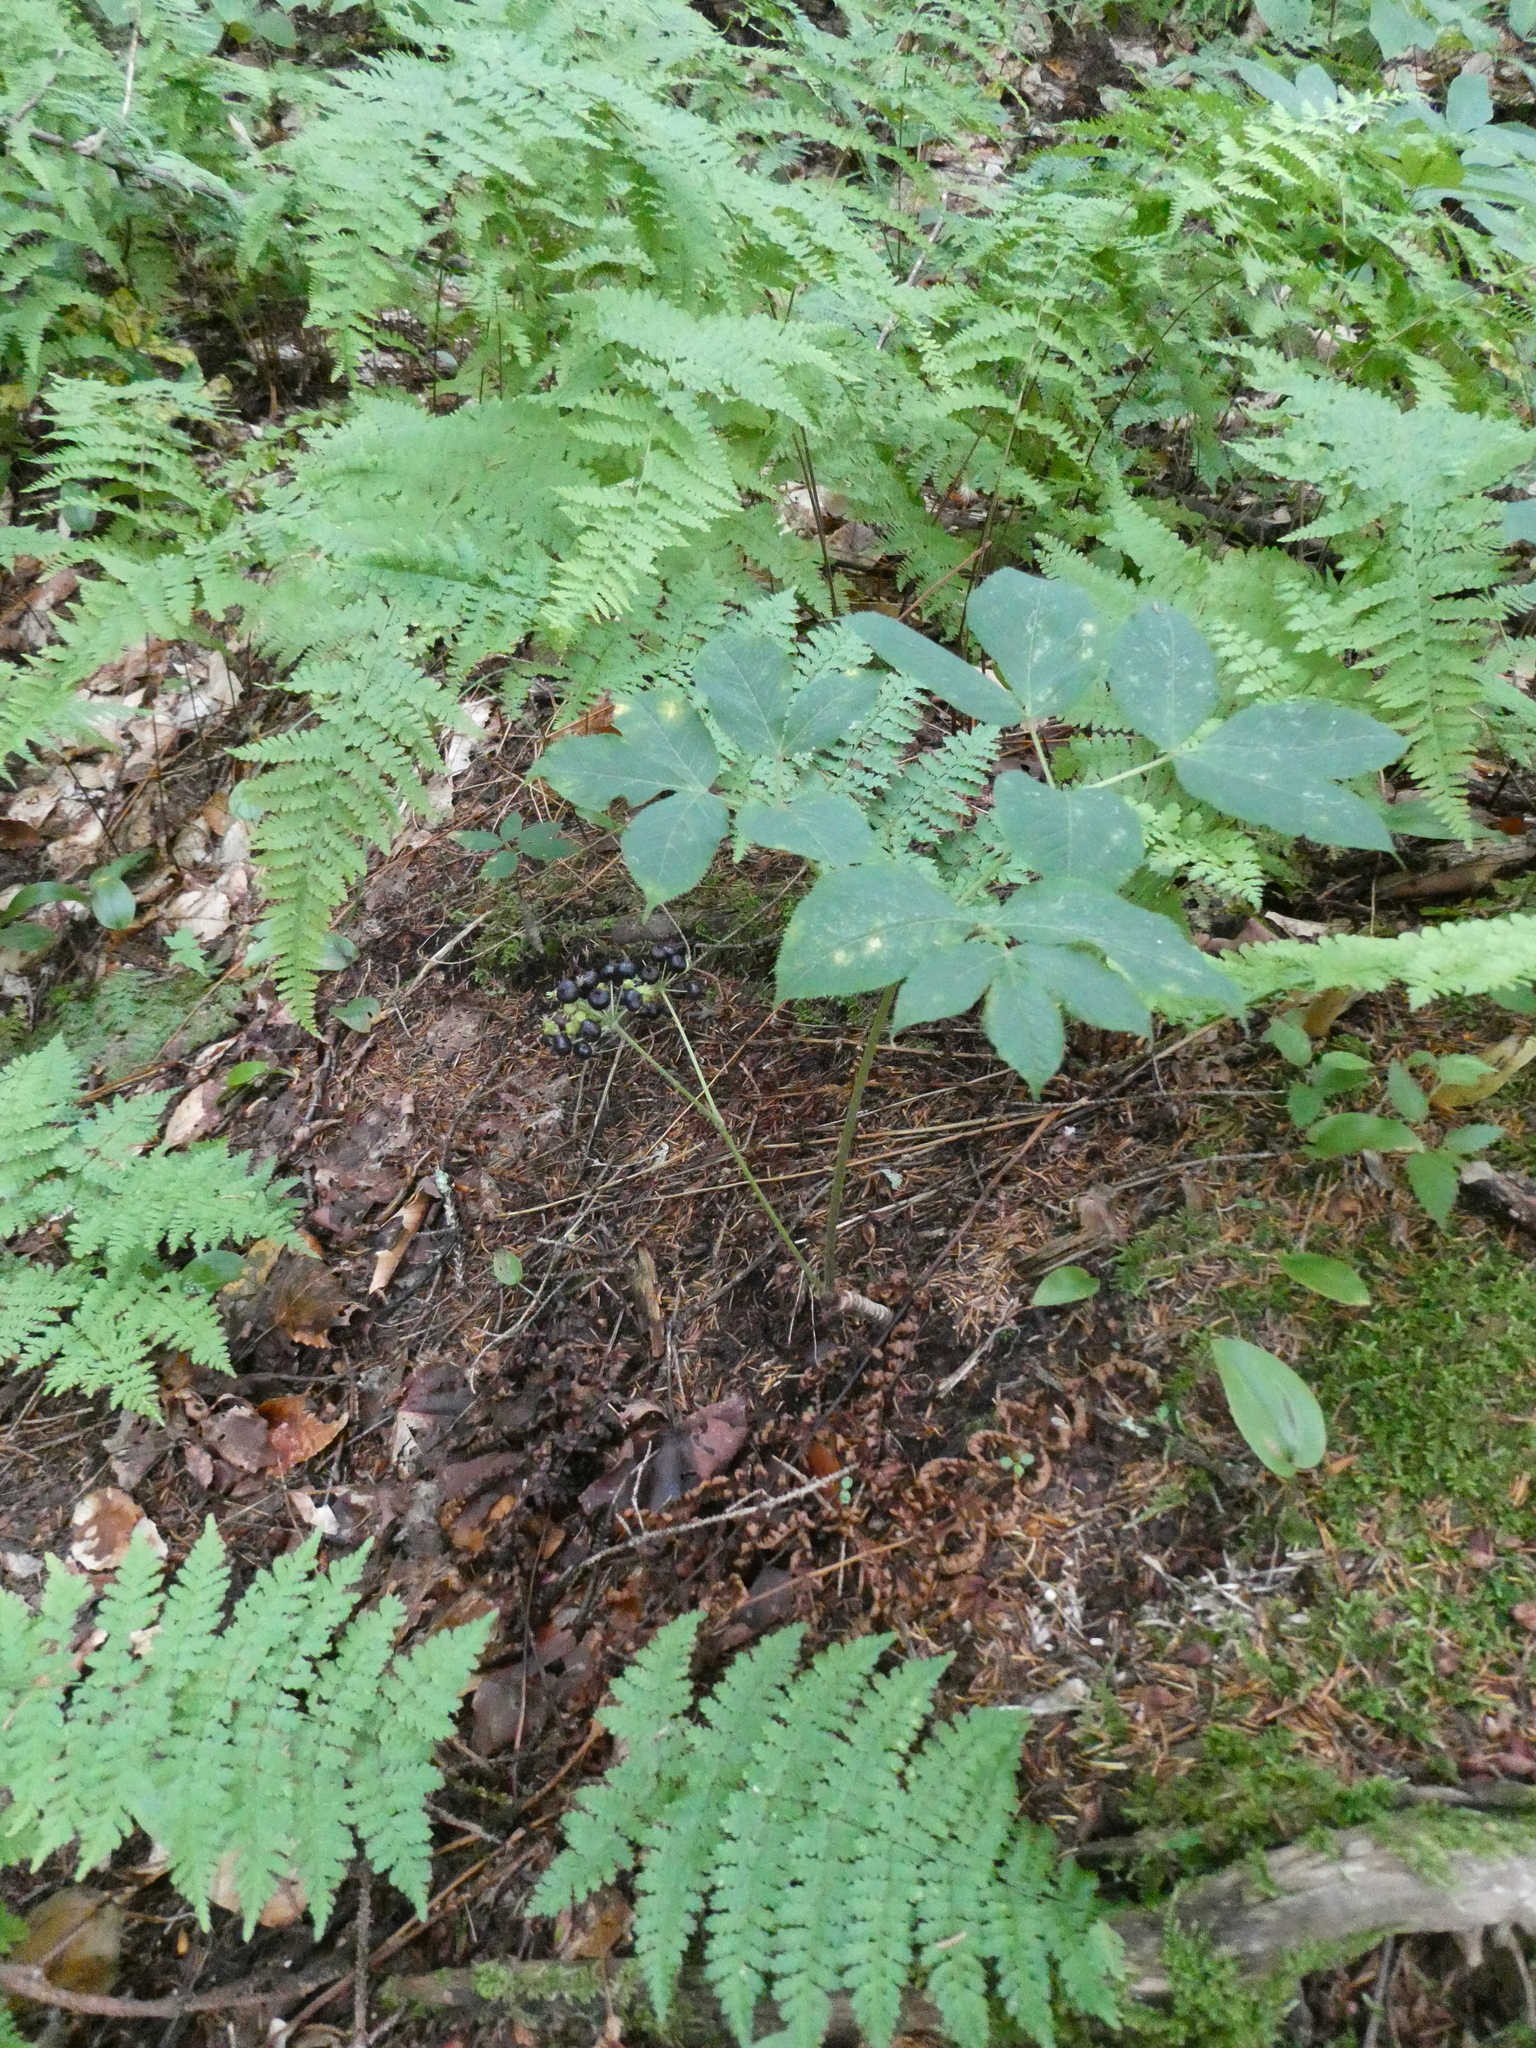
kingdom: Plantae
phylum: Tracheophyta
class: Magnoliopsida
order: Apiales
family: Araliaceae
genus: Aralia
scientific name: Aralia nudicaulis
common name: Wild sarsaparilla
